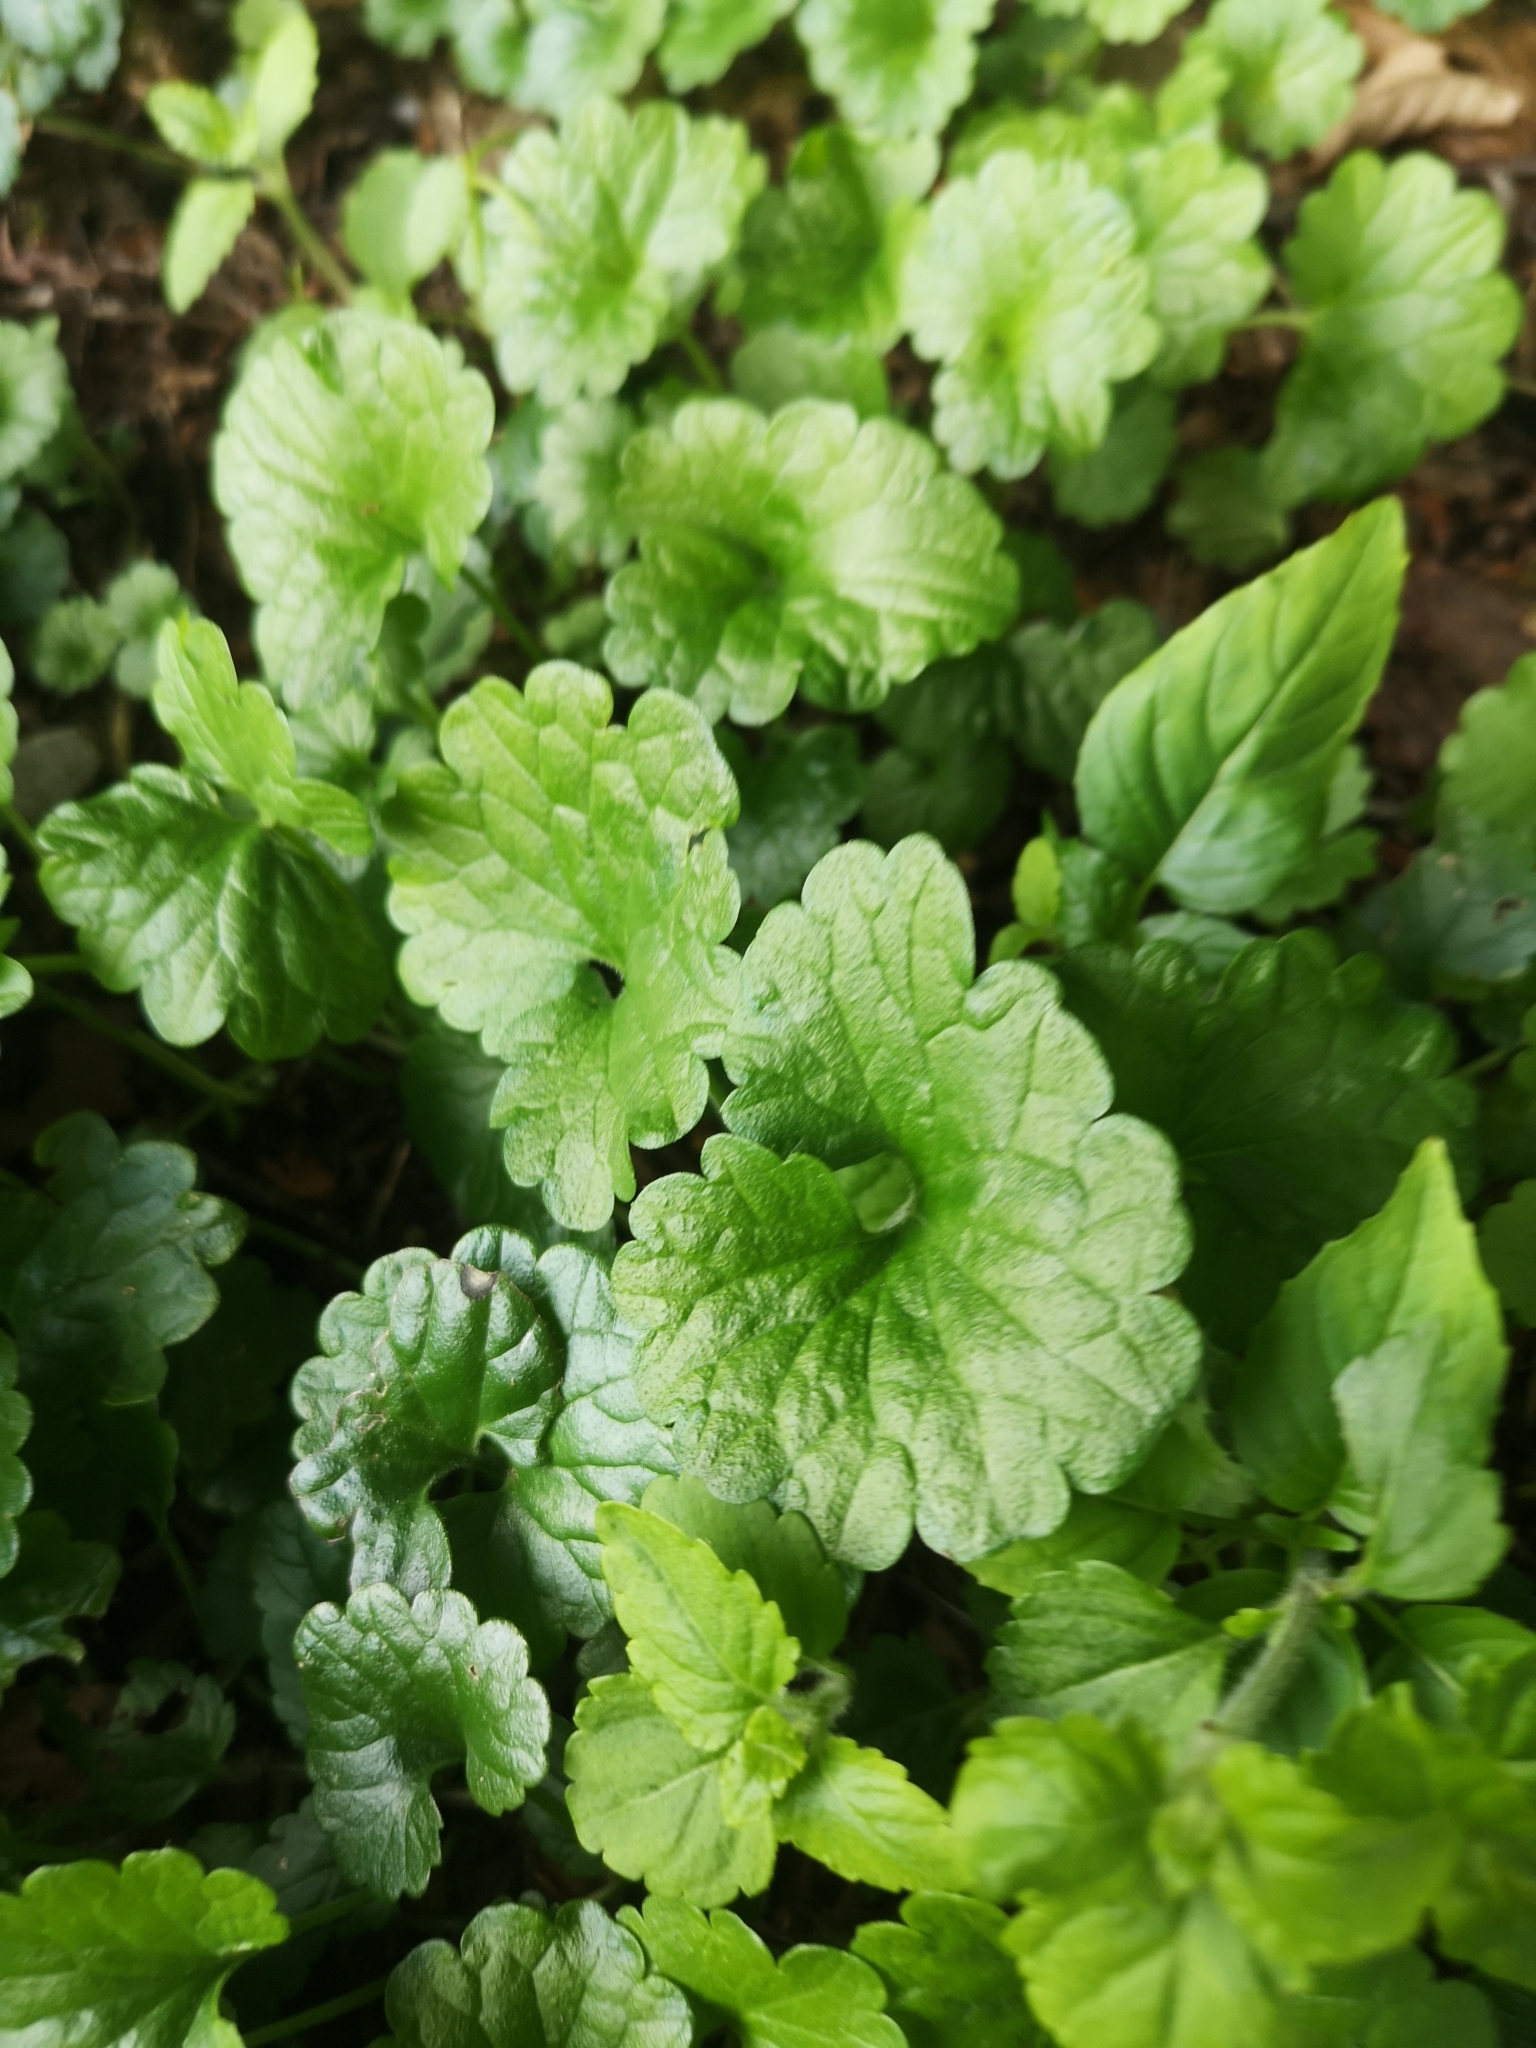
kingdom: Plantae
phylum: Tracheophyta
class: Magnoliopsida
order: Lamiales
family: Lamiaceae
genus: Glechoma
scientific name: Glechoma hederacea
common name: Ground ivy
